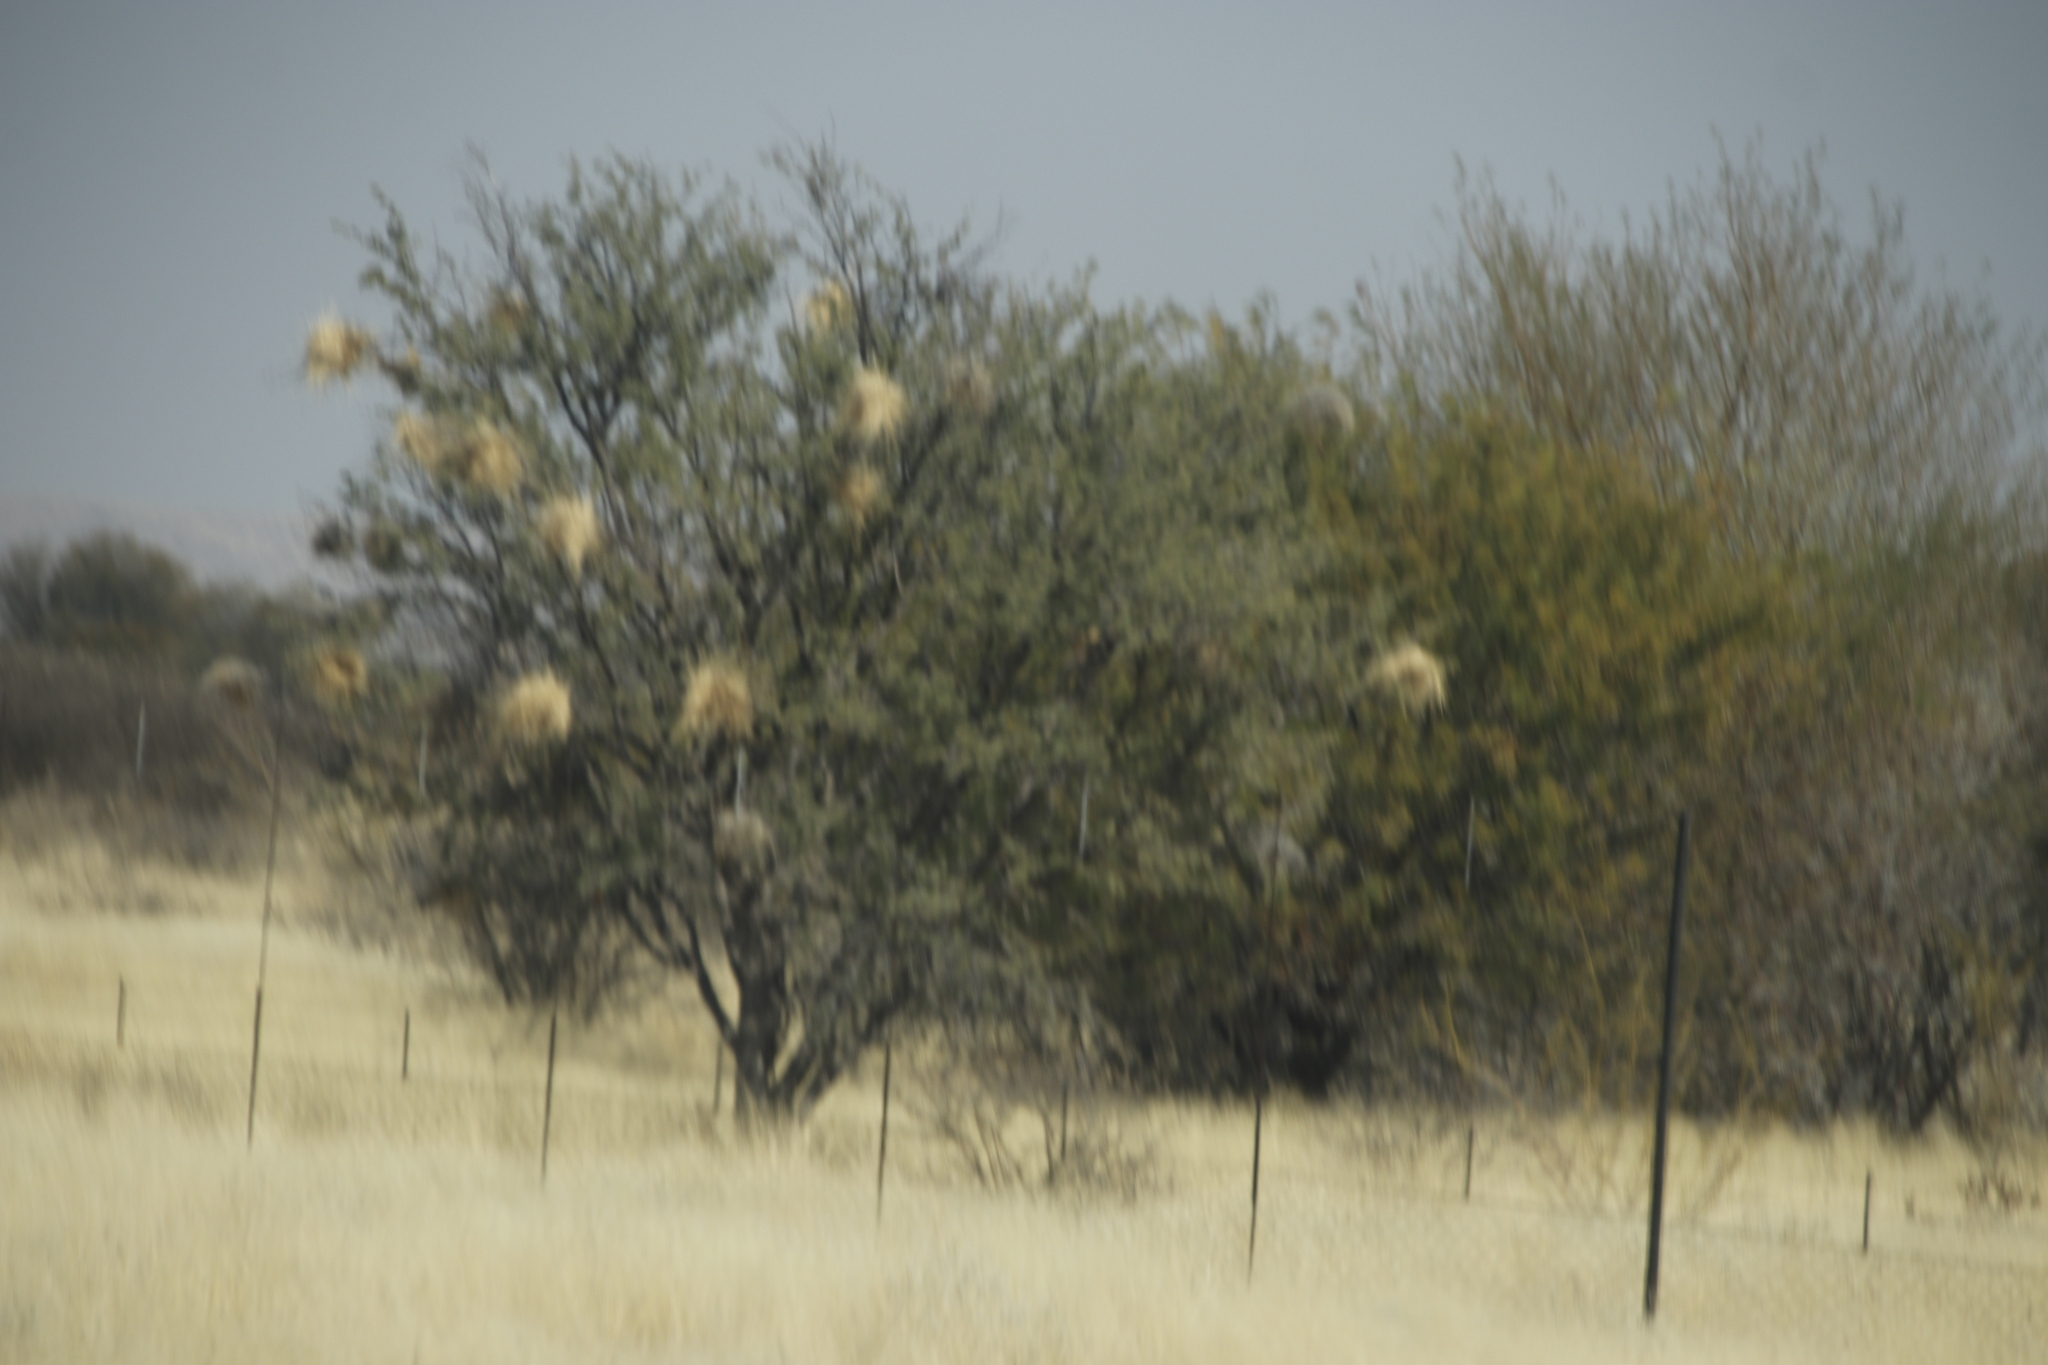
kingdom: Animalia
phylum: Chordata
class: Aves
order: Passeriformes
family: Passeridae
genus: Plocepasser
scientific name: Plocepasser mahali
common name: White-browed sparrow-weaver
